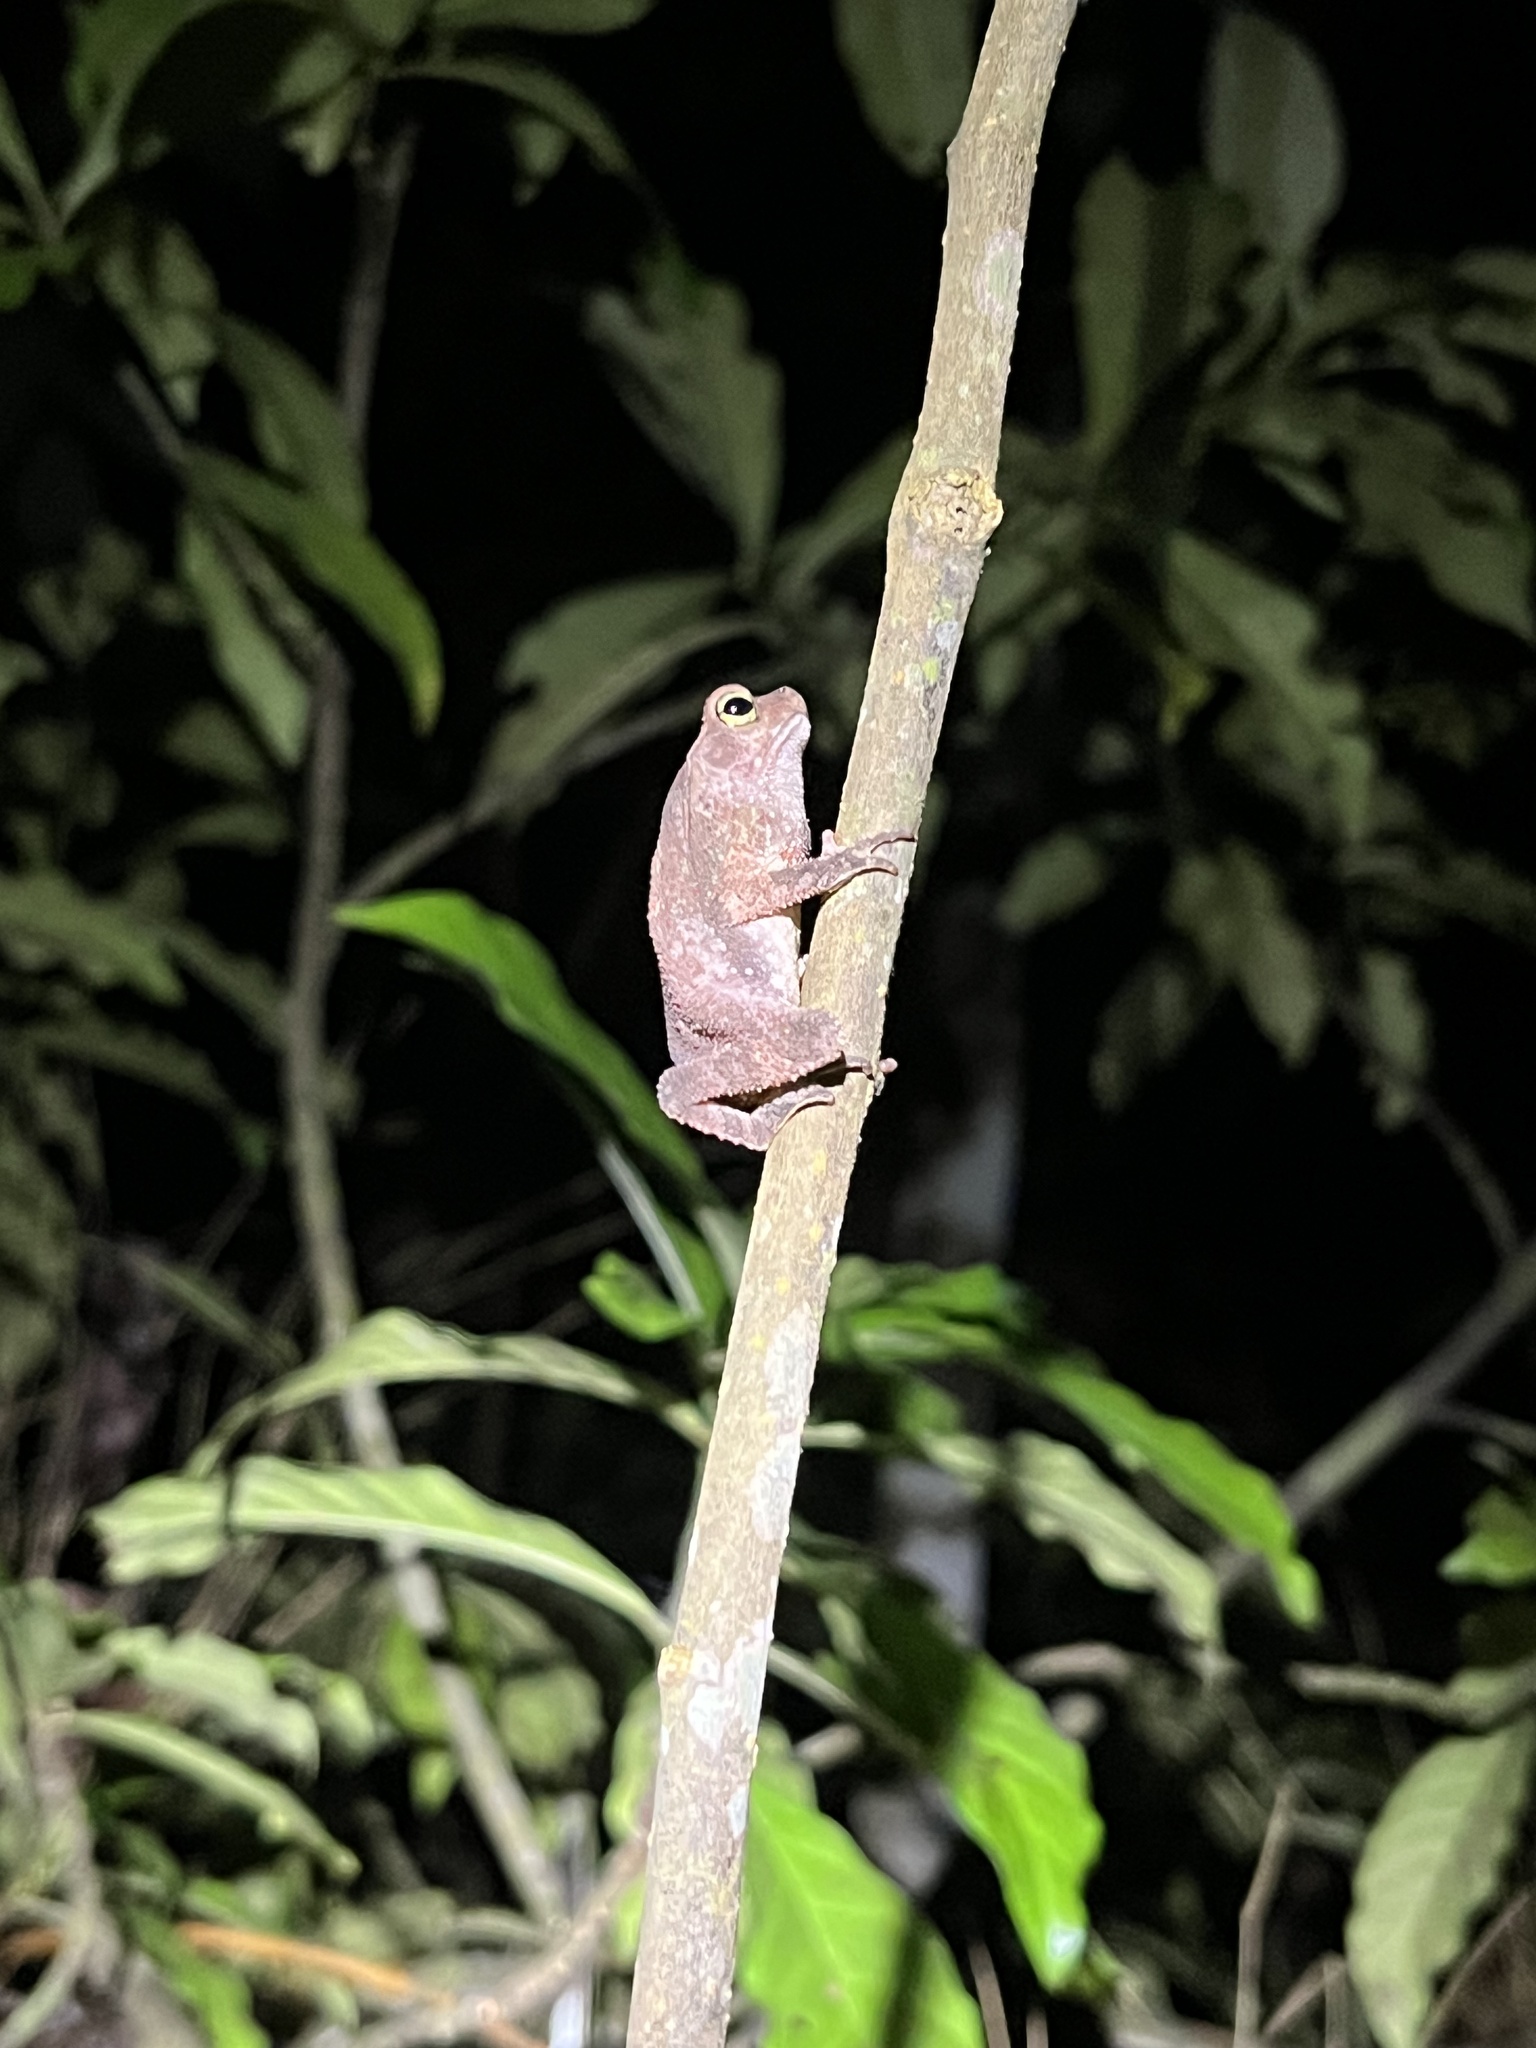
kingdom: Animalia
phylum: Chordata
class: Amphibia
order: Anura
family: Bufonidae
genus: Rhinella
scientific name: Rhinella alata
